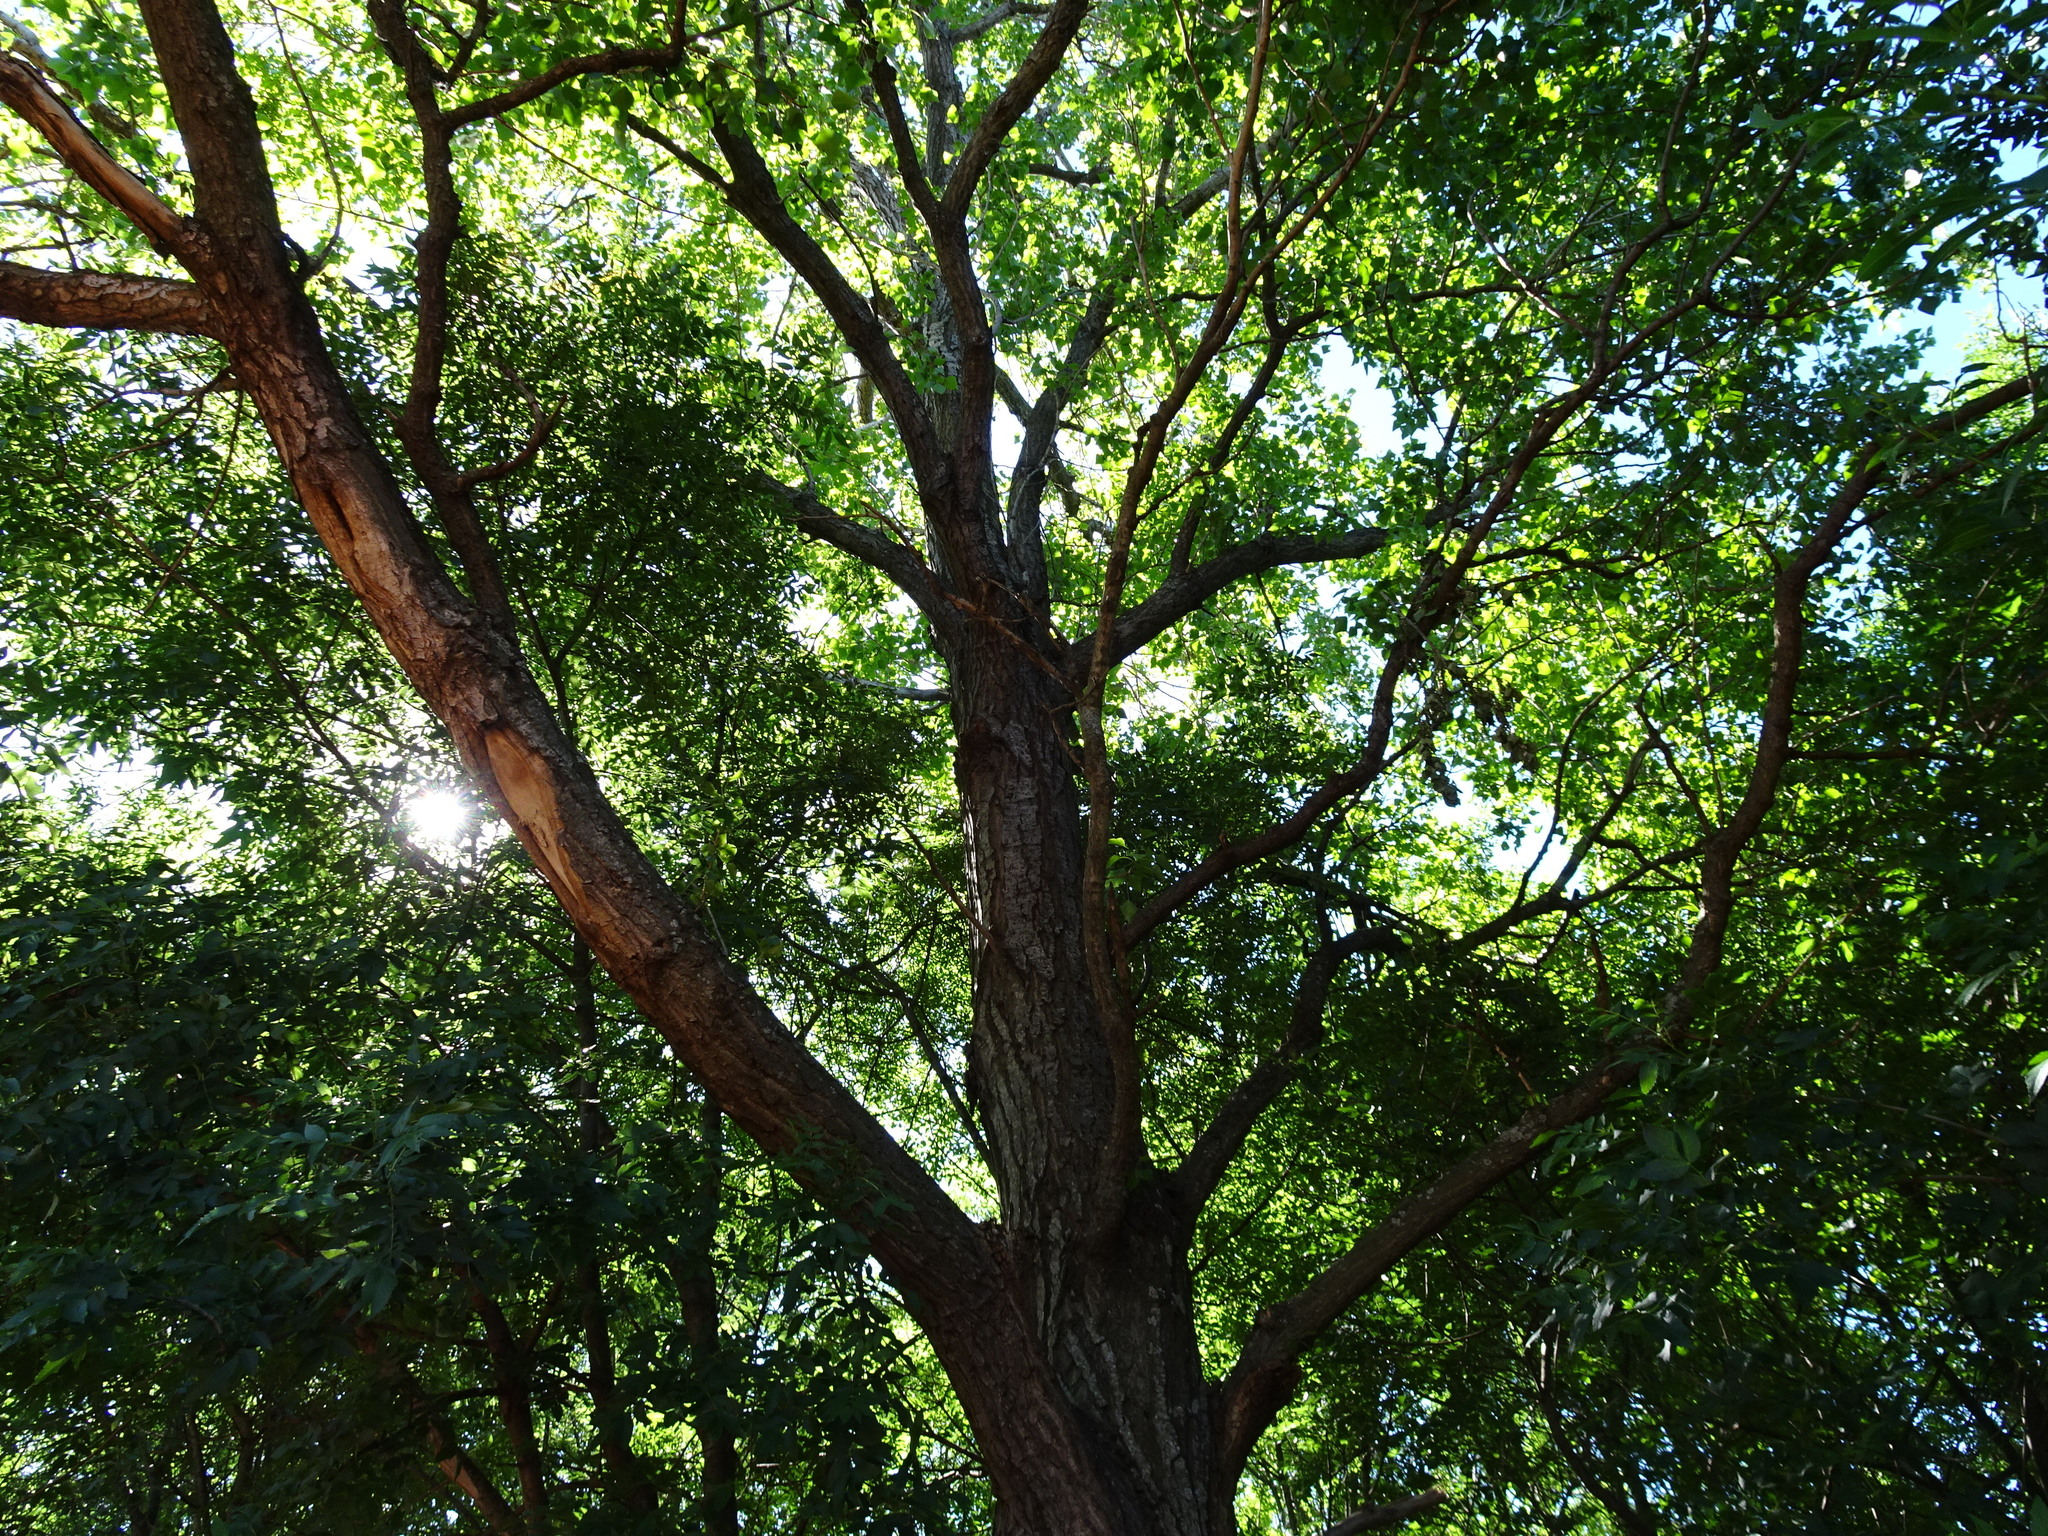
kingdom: Plantae
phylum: Tracheophyta
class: Magnoliopsida
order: Malpighiales
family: Salicaceae
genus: Populus
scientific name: Populus nigra
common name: Black poplar
